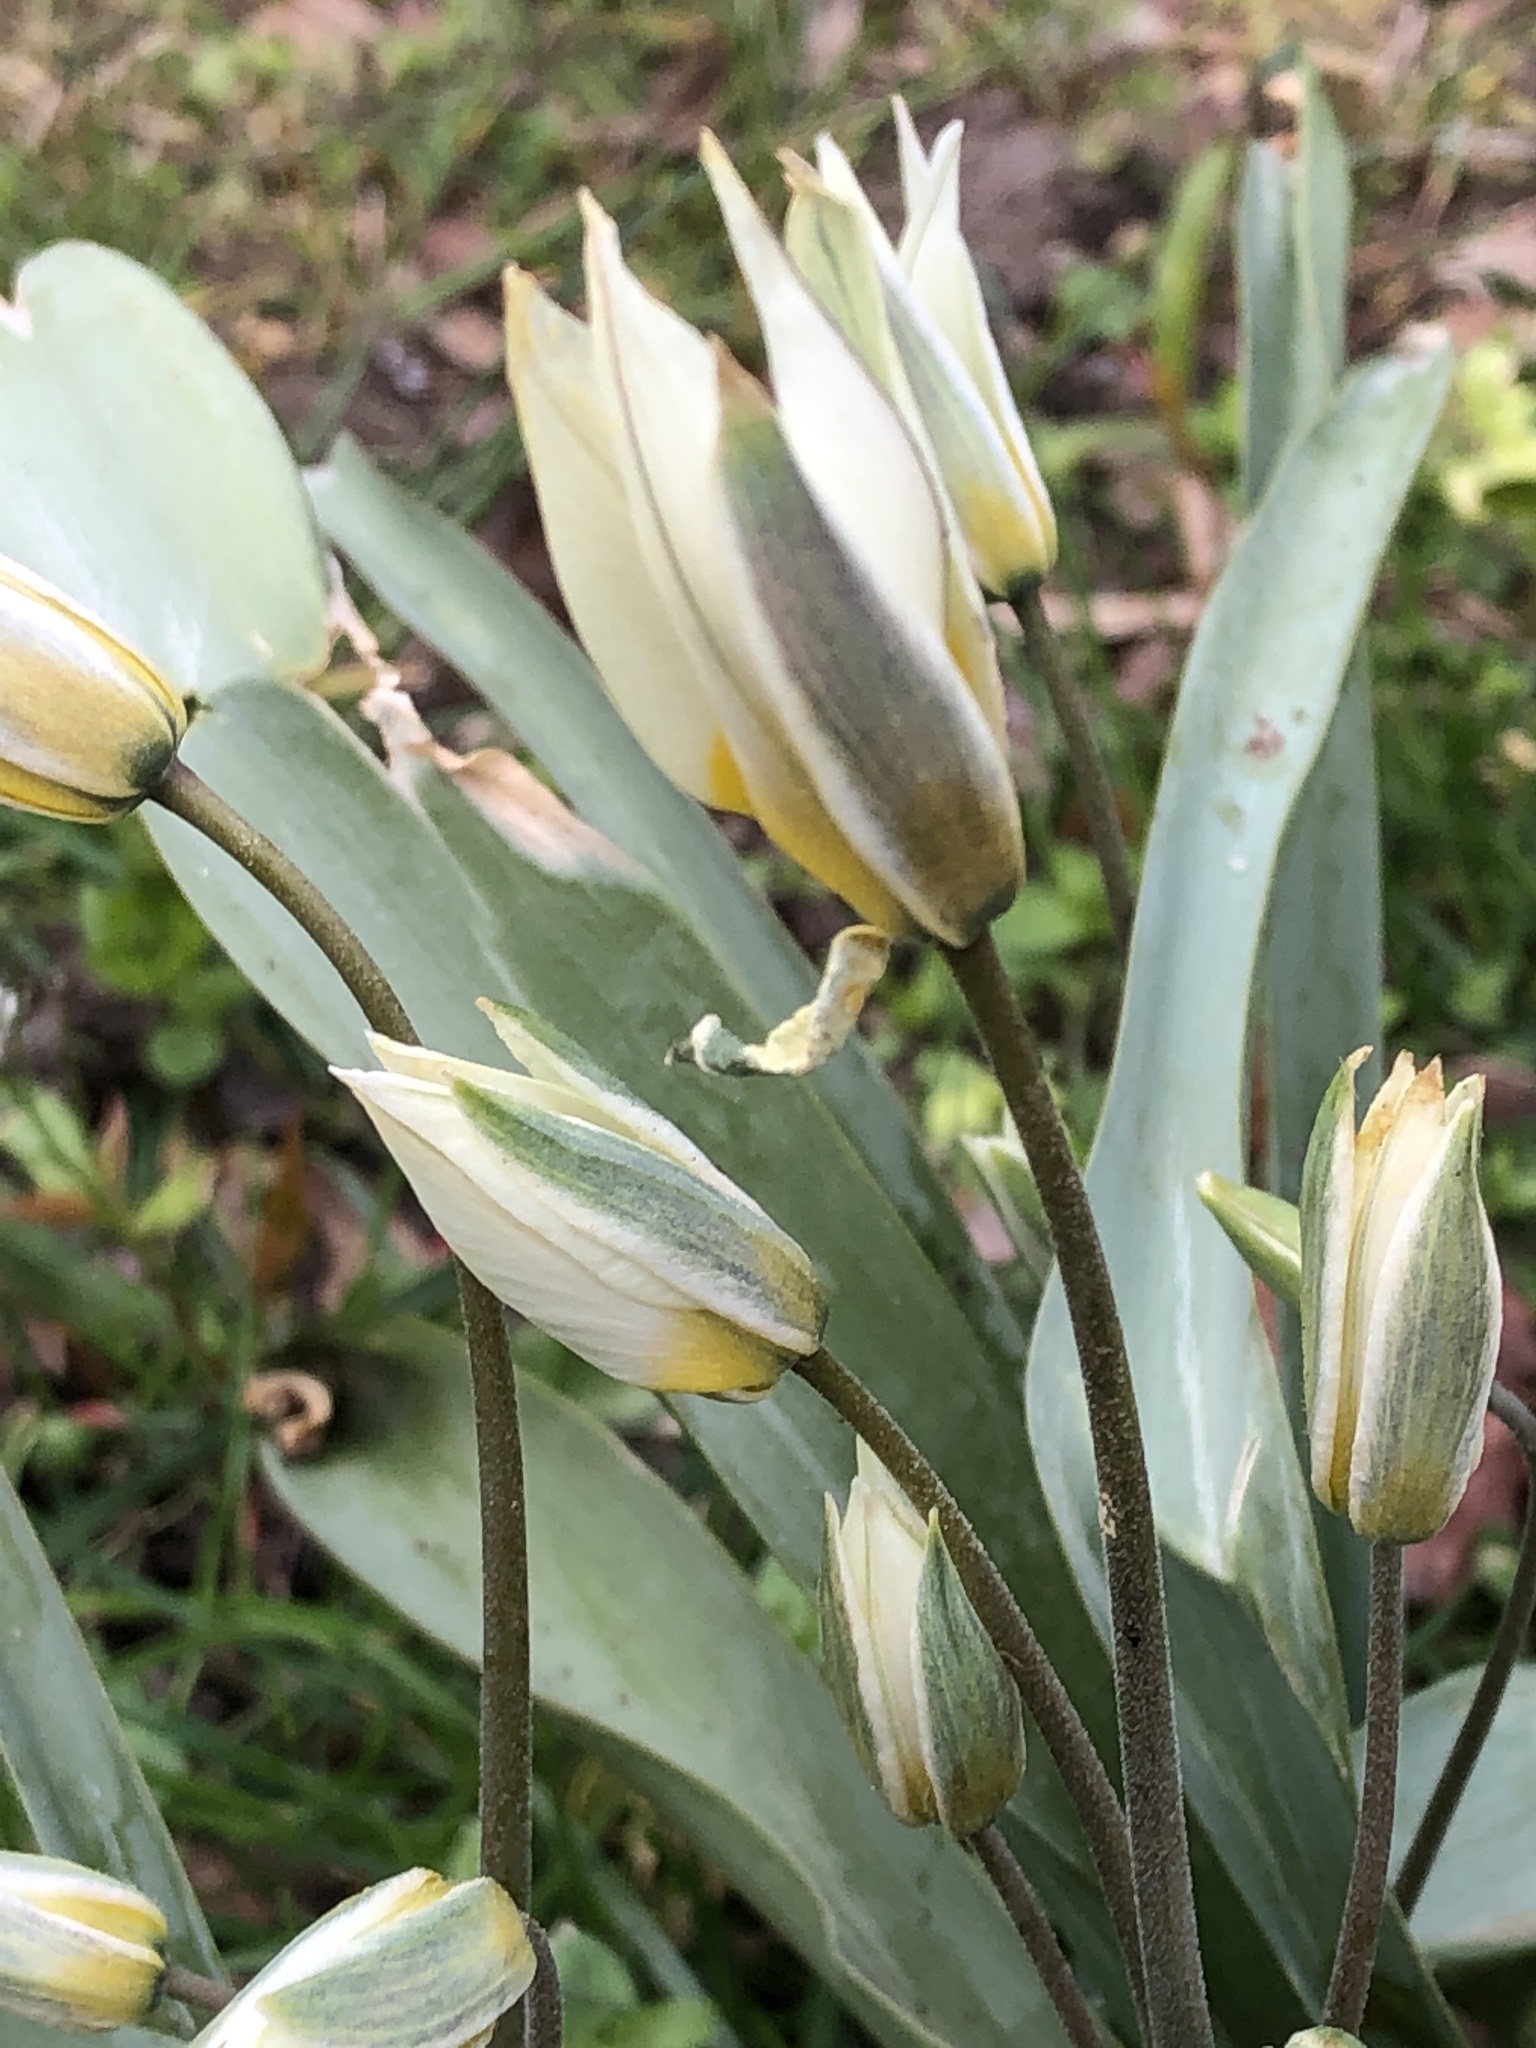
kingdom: Plantae
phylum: Tracheophyta
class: Liliopsida
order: Liliales
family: Liliaceae
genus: Tulipa
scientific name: Tulipa bifloriformis
